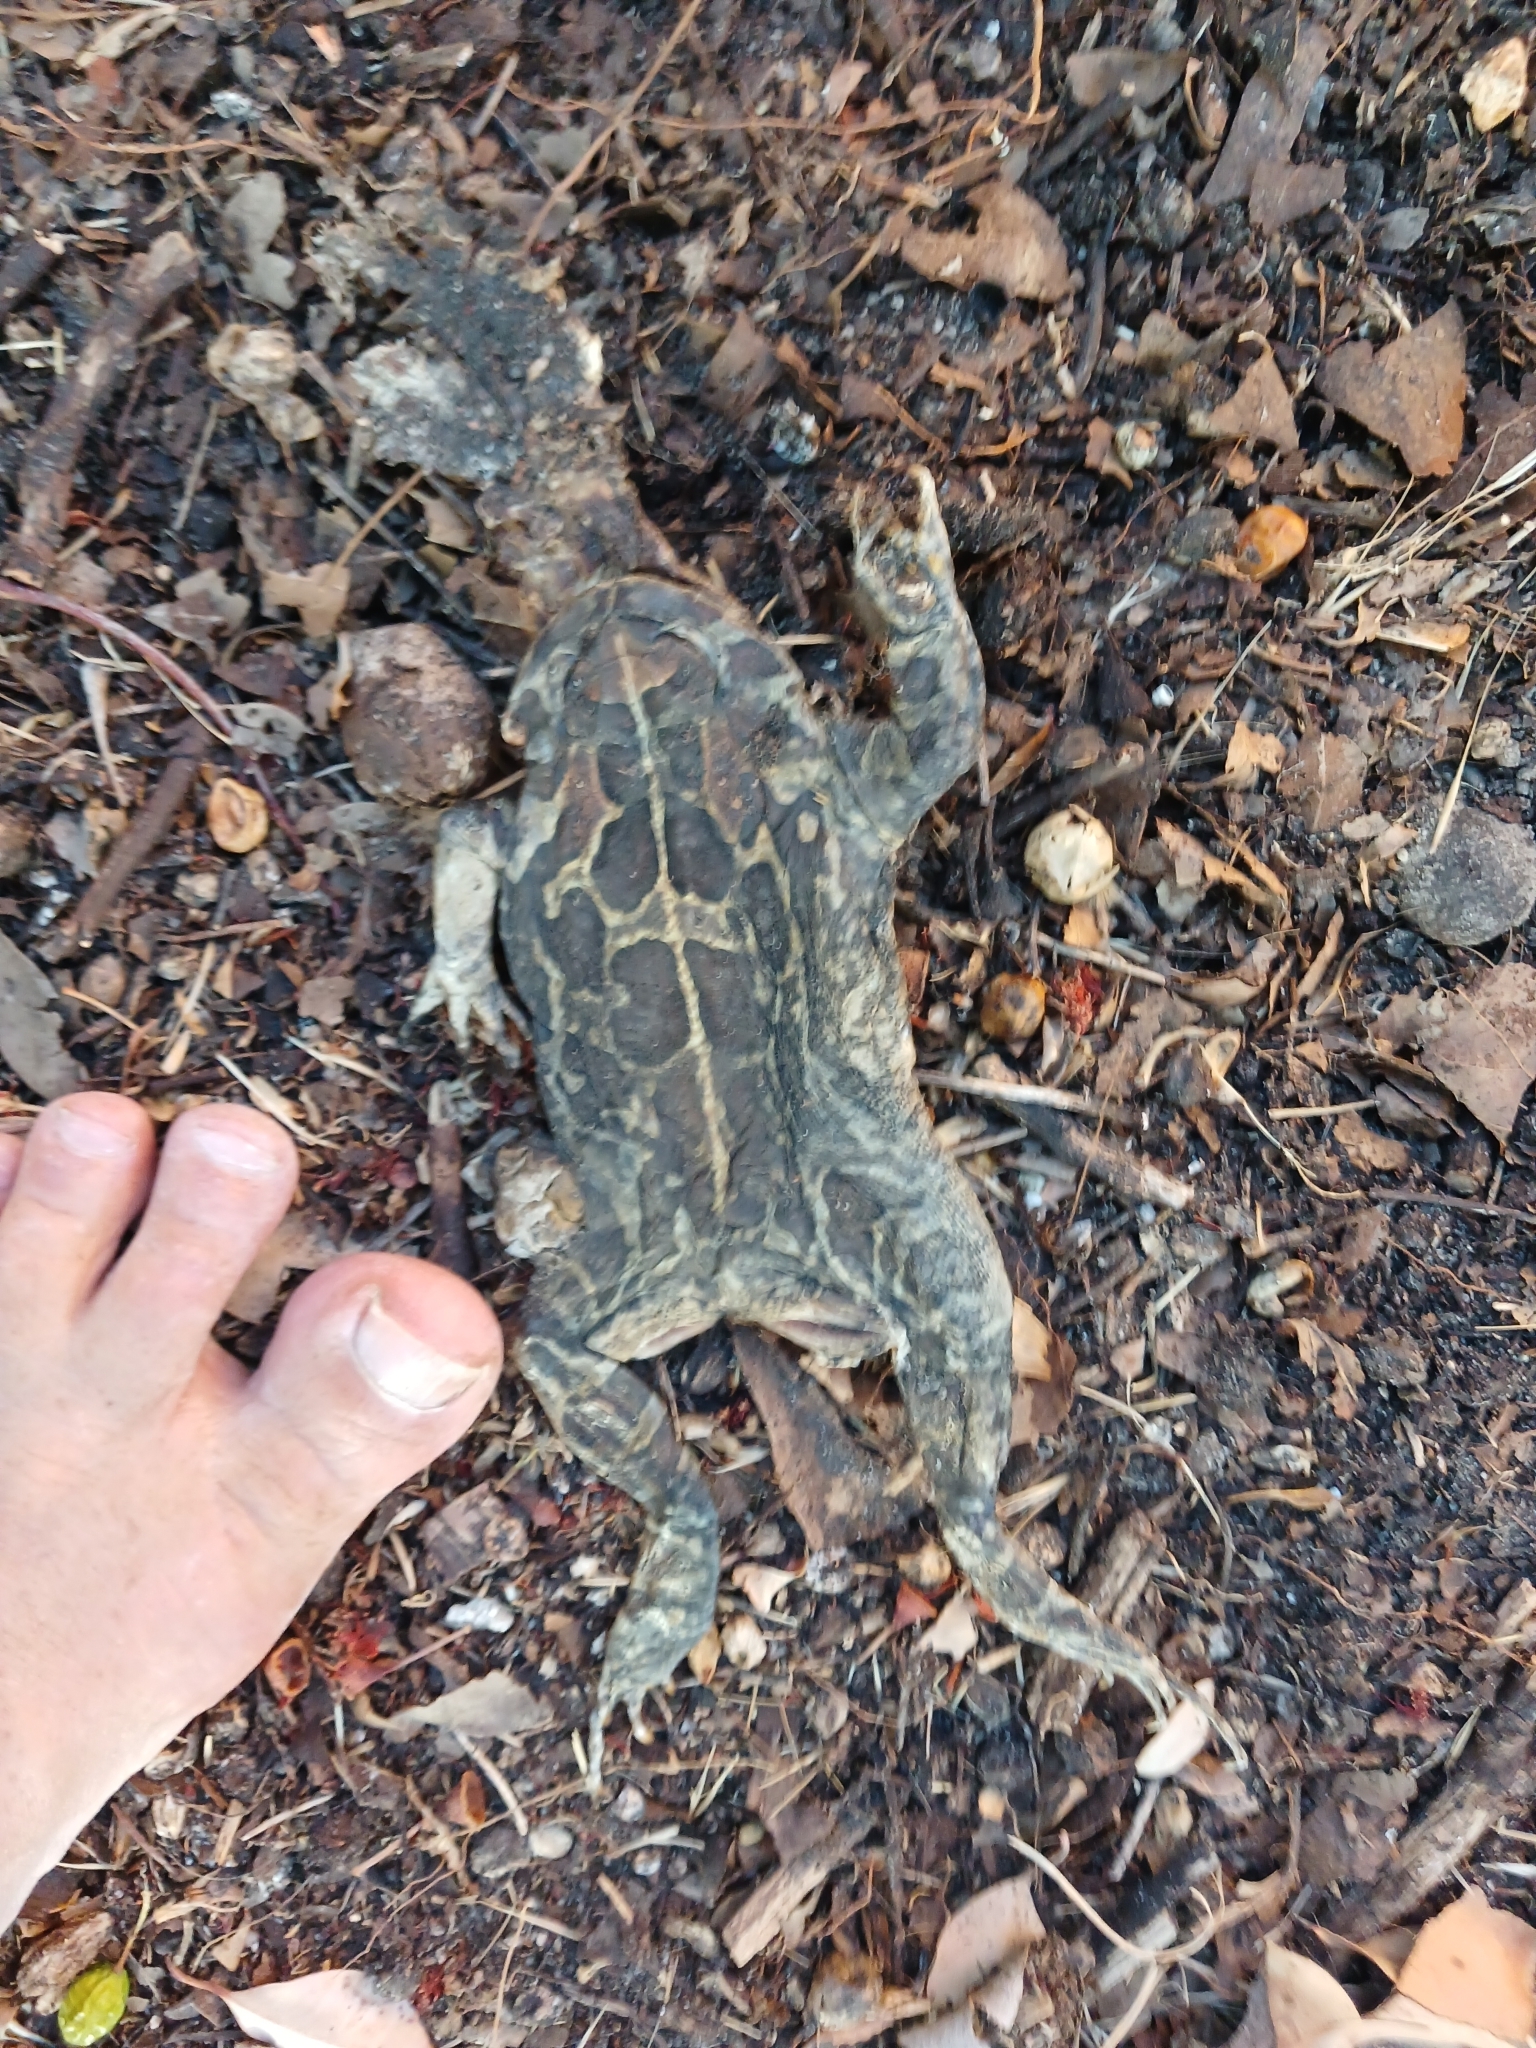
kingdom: Animalia
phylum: Chordata
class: Amphibia
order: Anura
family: Bufonidae
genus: Sclerophrys
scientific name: Sclerophrys pantherina
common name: Panther toad
